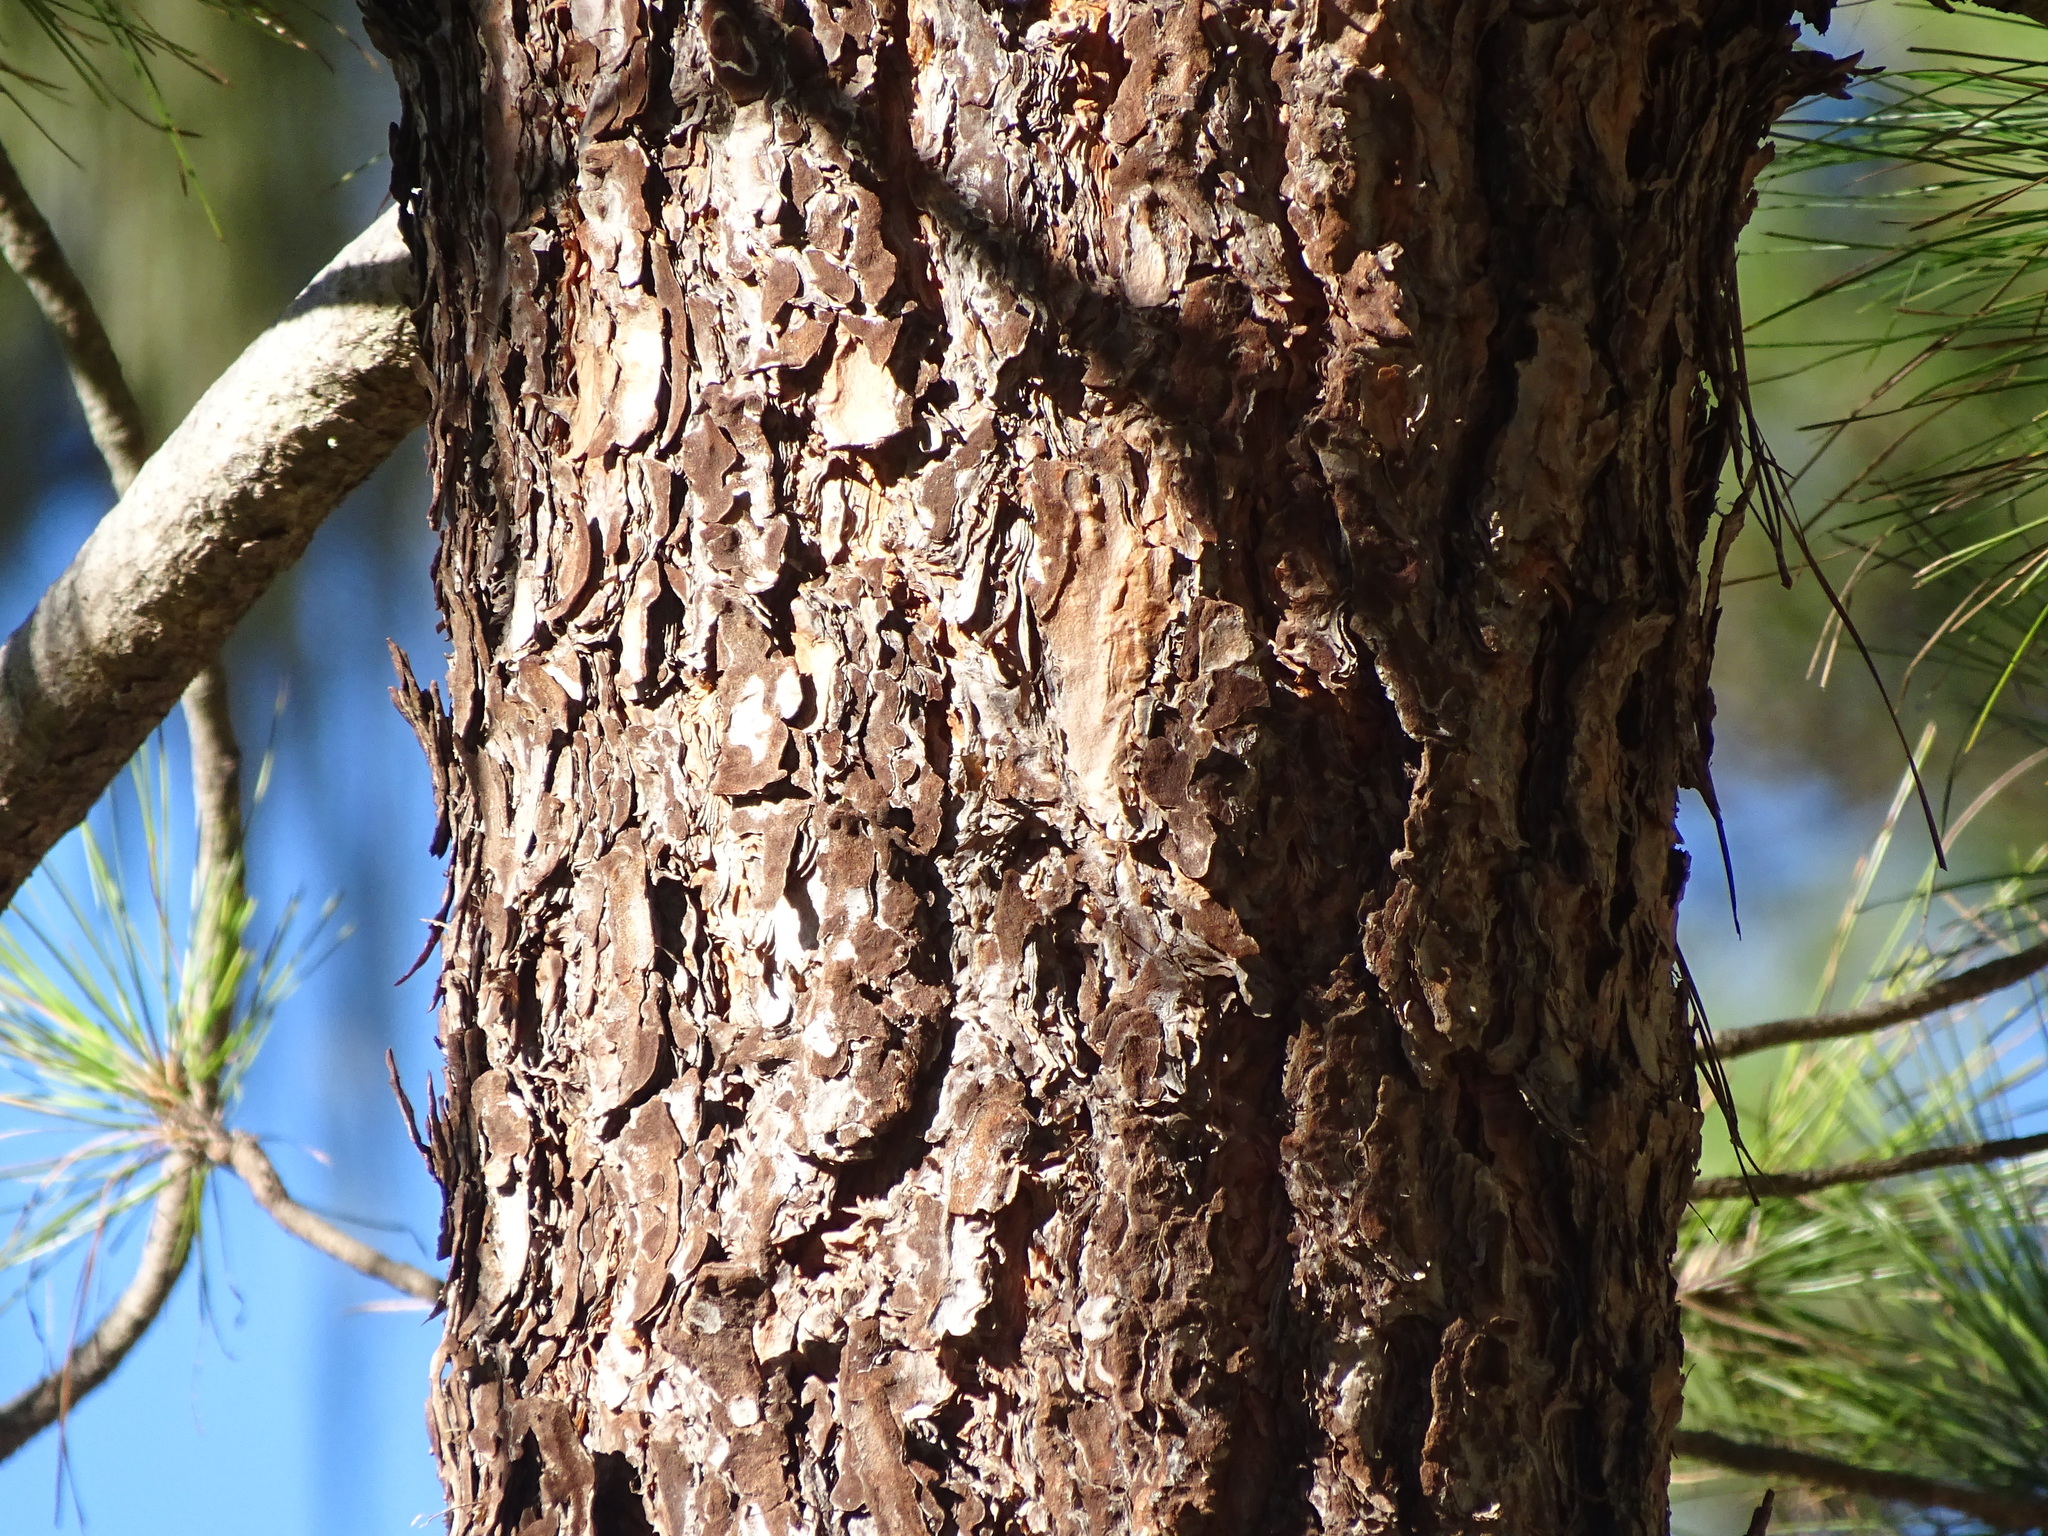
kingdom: Plantae
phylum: Tracheophyta
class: Pinopsida
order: Pinales
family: Pinaceae
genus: Pinus
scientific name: Pinus canariensis
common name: Canary islands pine
